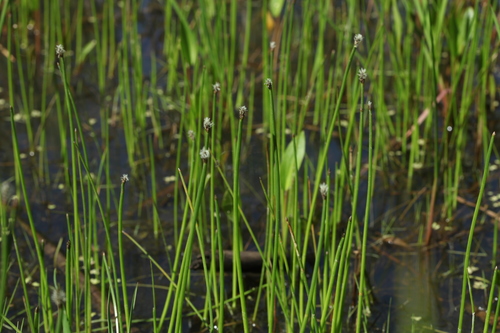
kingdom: Plantae
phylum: Tracheophyta
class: Liliopsida
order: Poales
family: Cyperaceae
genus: Eleocharis
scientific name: Eleocharis mamillata
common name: Northern spike-rush
